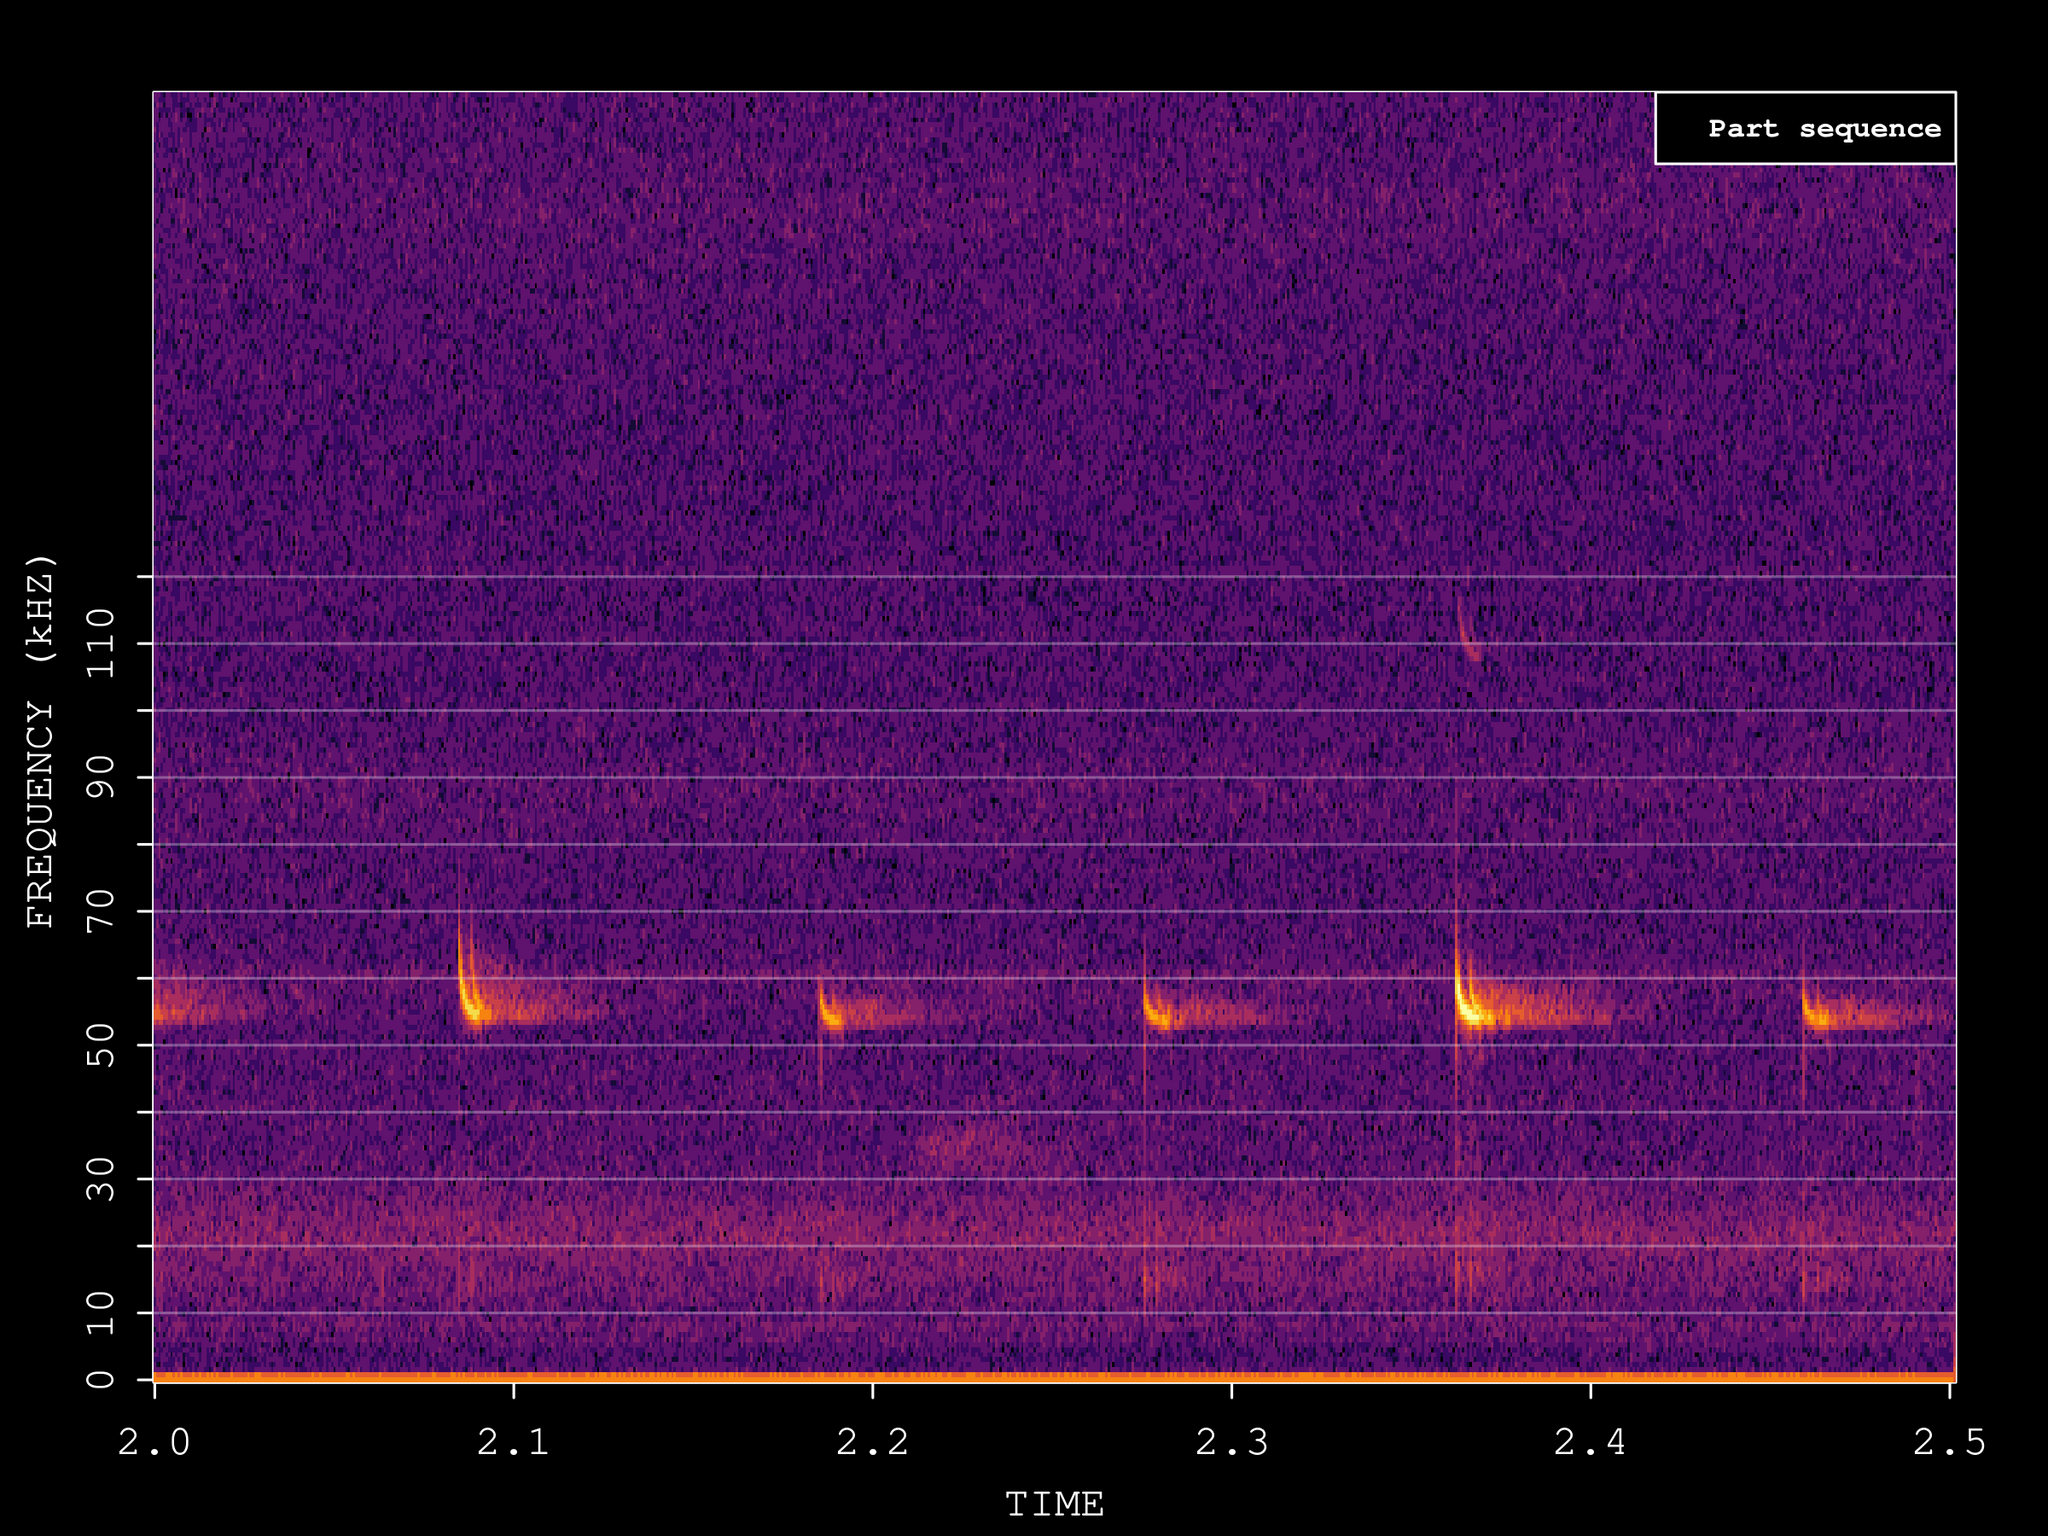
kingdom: Animalia
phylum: Chordata
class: Mammalia
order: Chiroptera
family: Vespertilionidae
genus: Pipistrellus
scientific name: Pipistrellus pygmaeus
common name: Soprano pipistrelle
